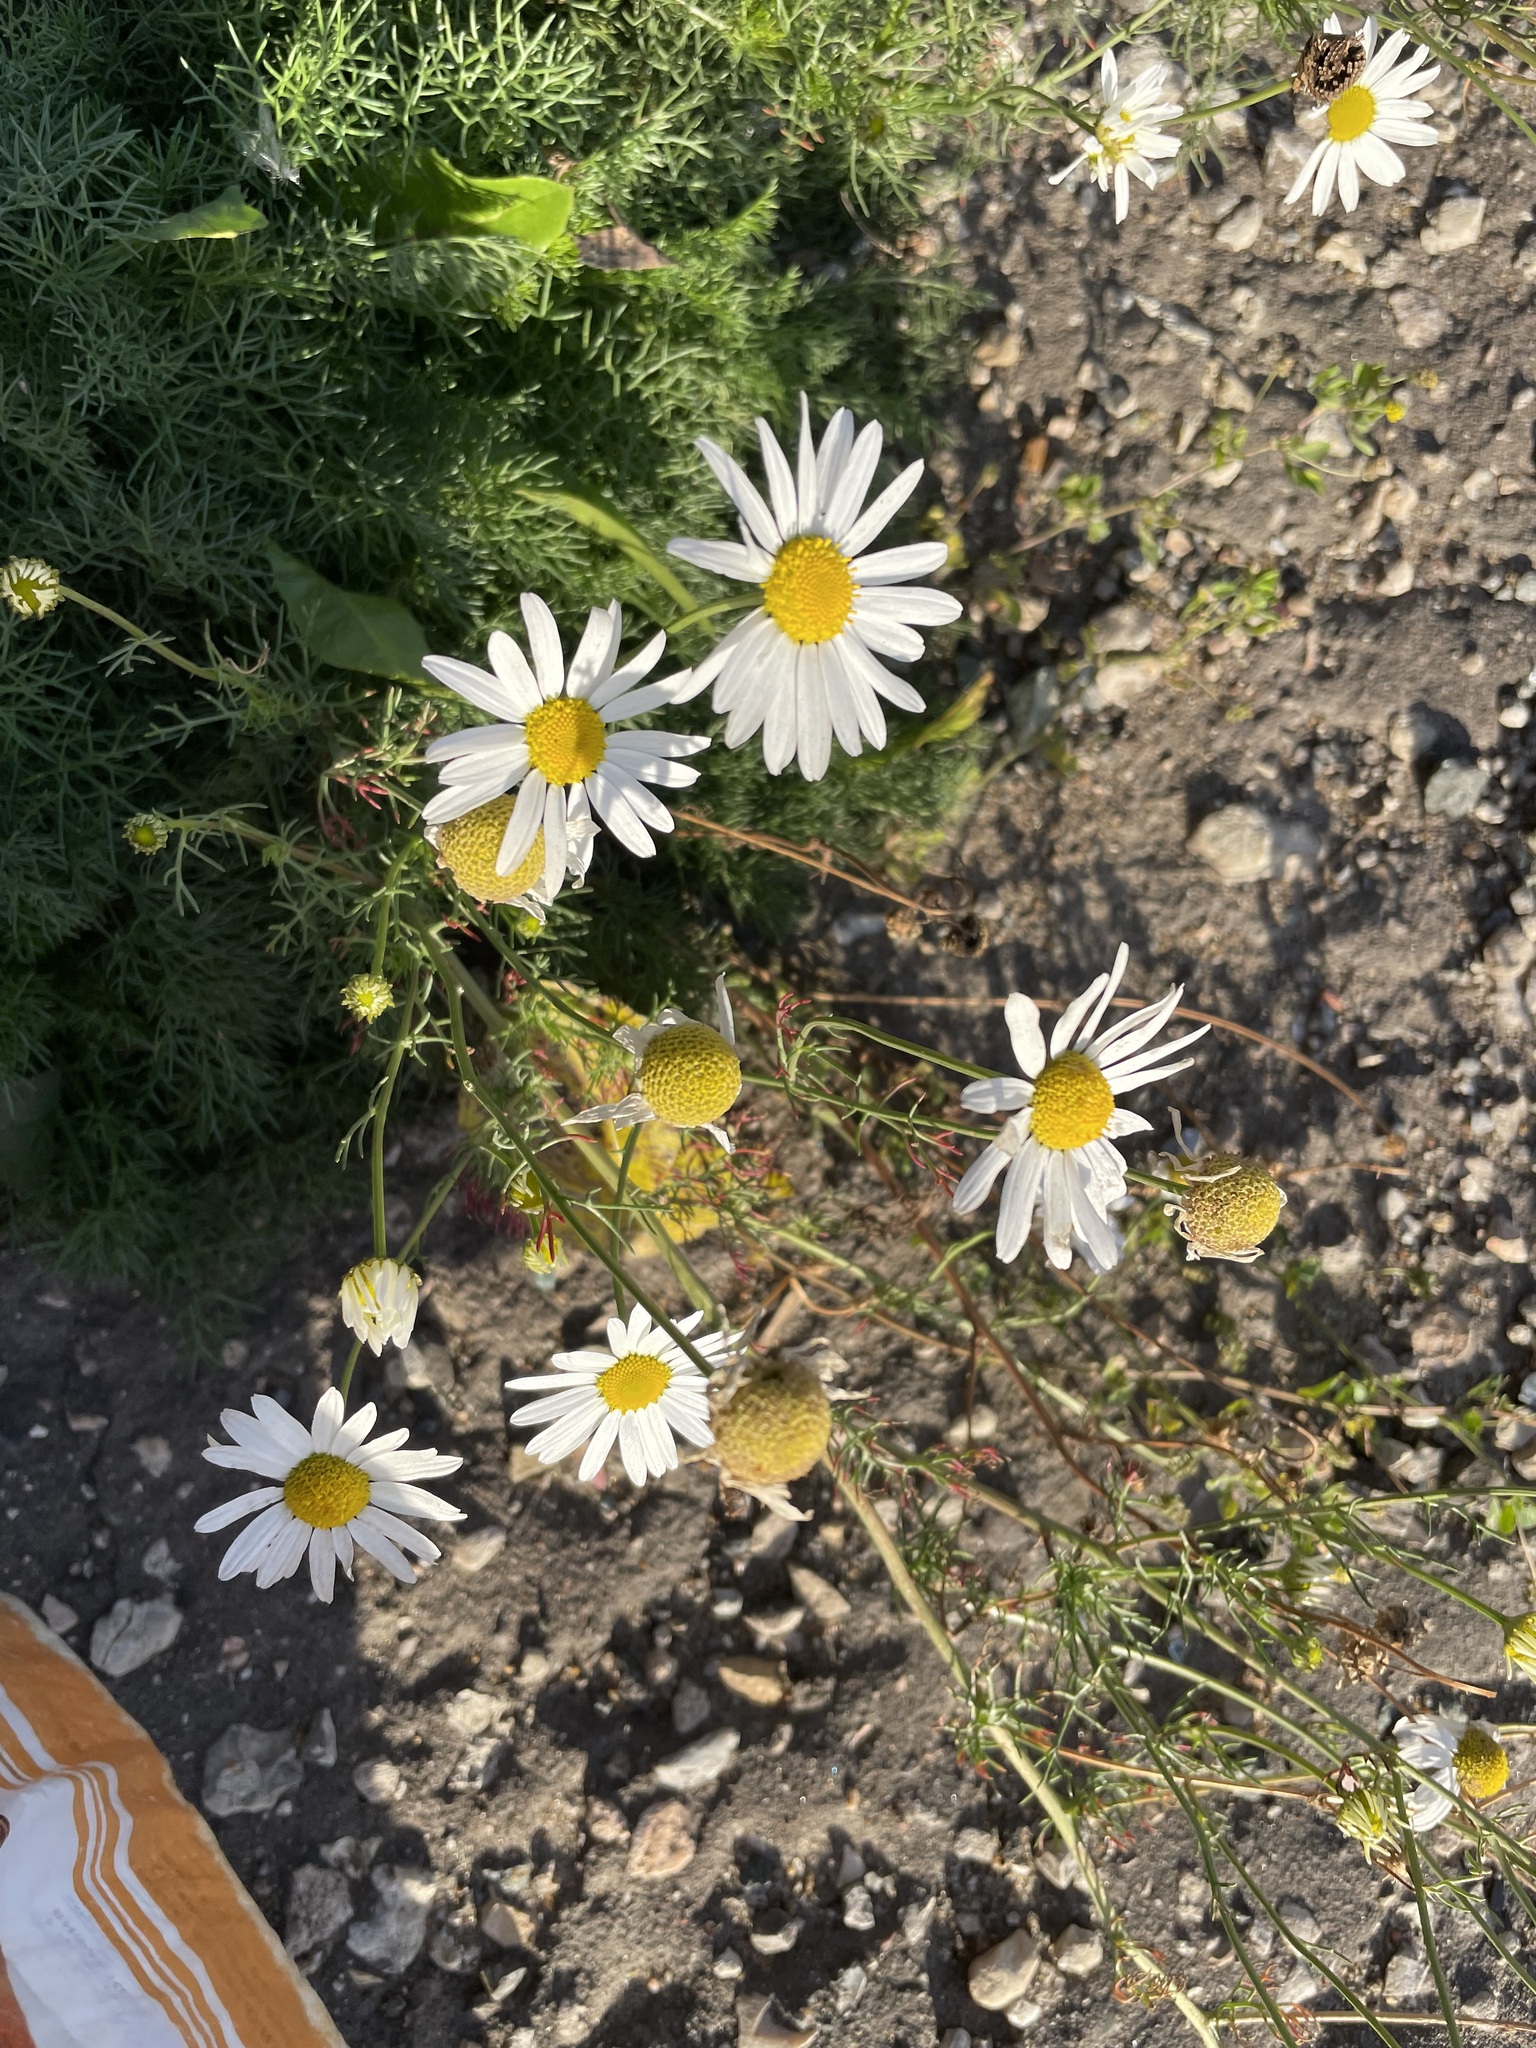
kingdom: Plantae
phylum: Tracheophyta
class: Magnoliopsida
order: Asterales
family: Asteraceae
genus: Tripleurospermum
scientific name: Tripleurospermum inodorum
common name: Scentless mayweed
